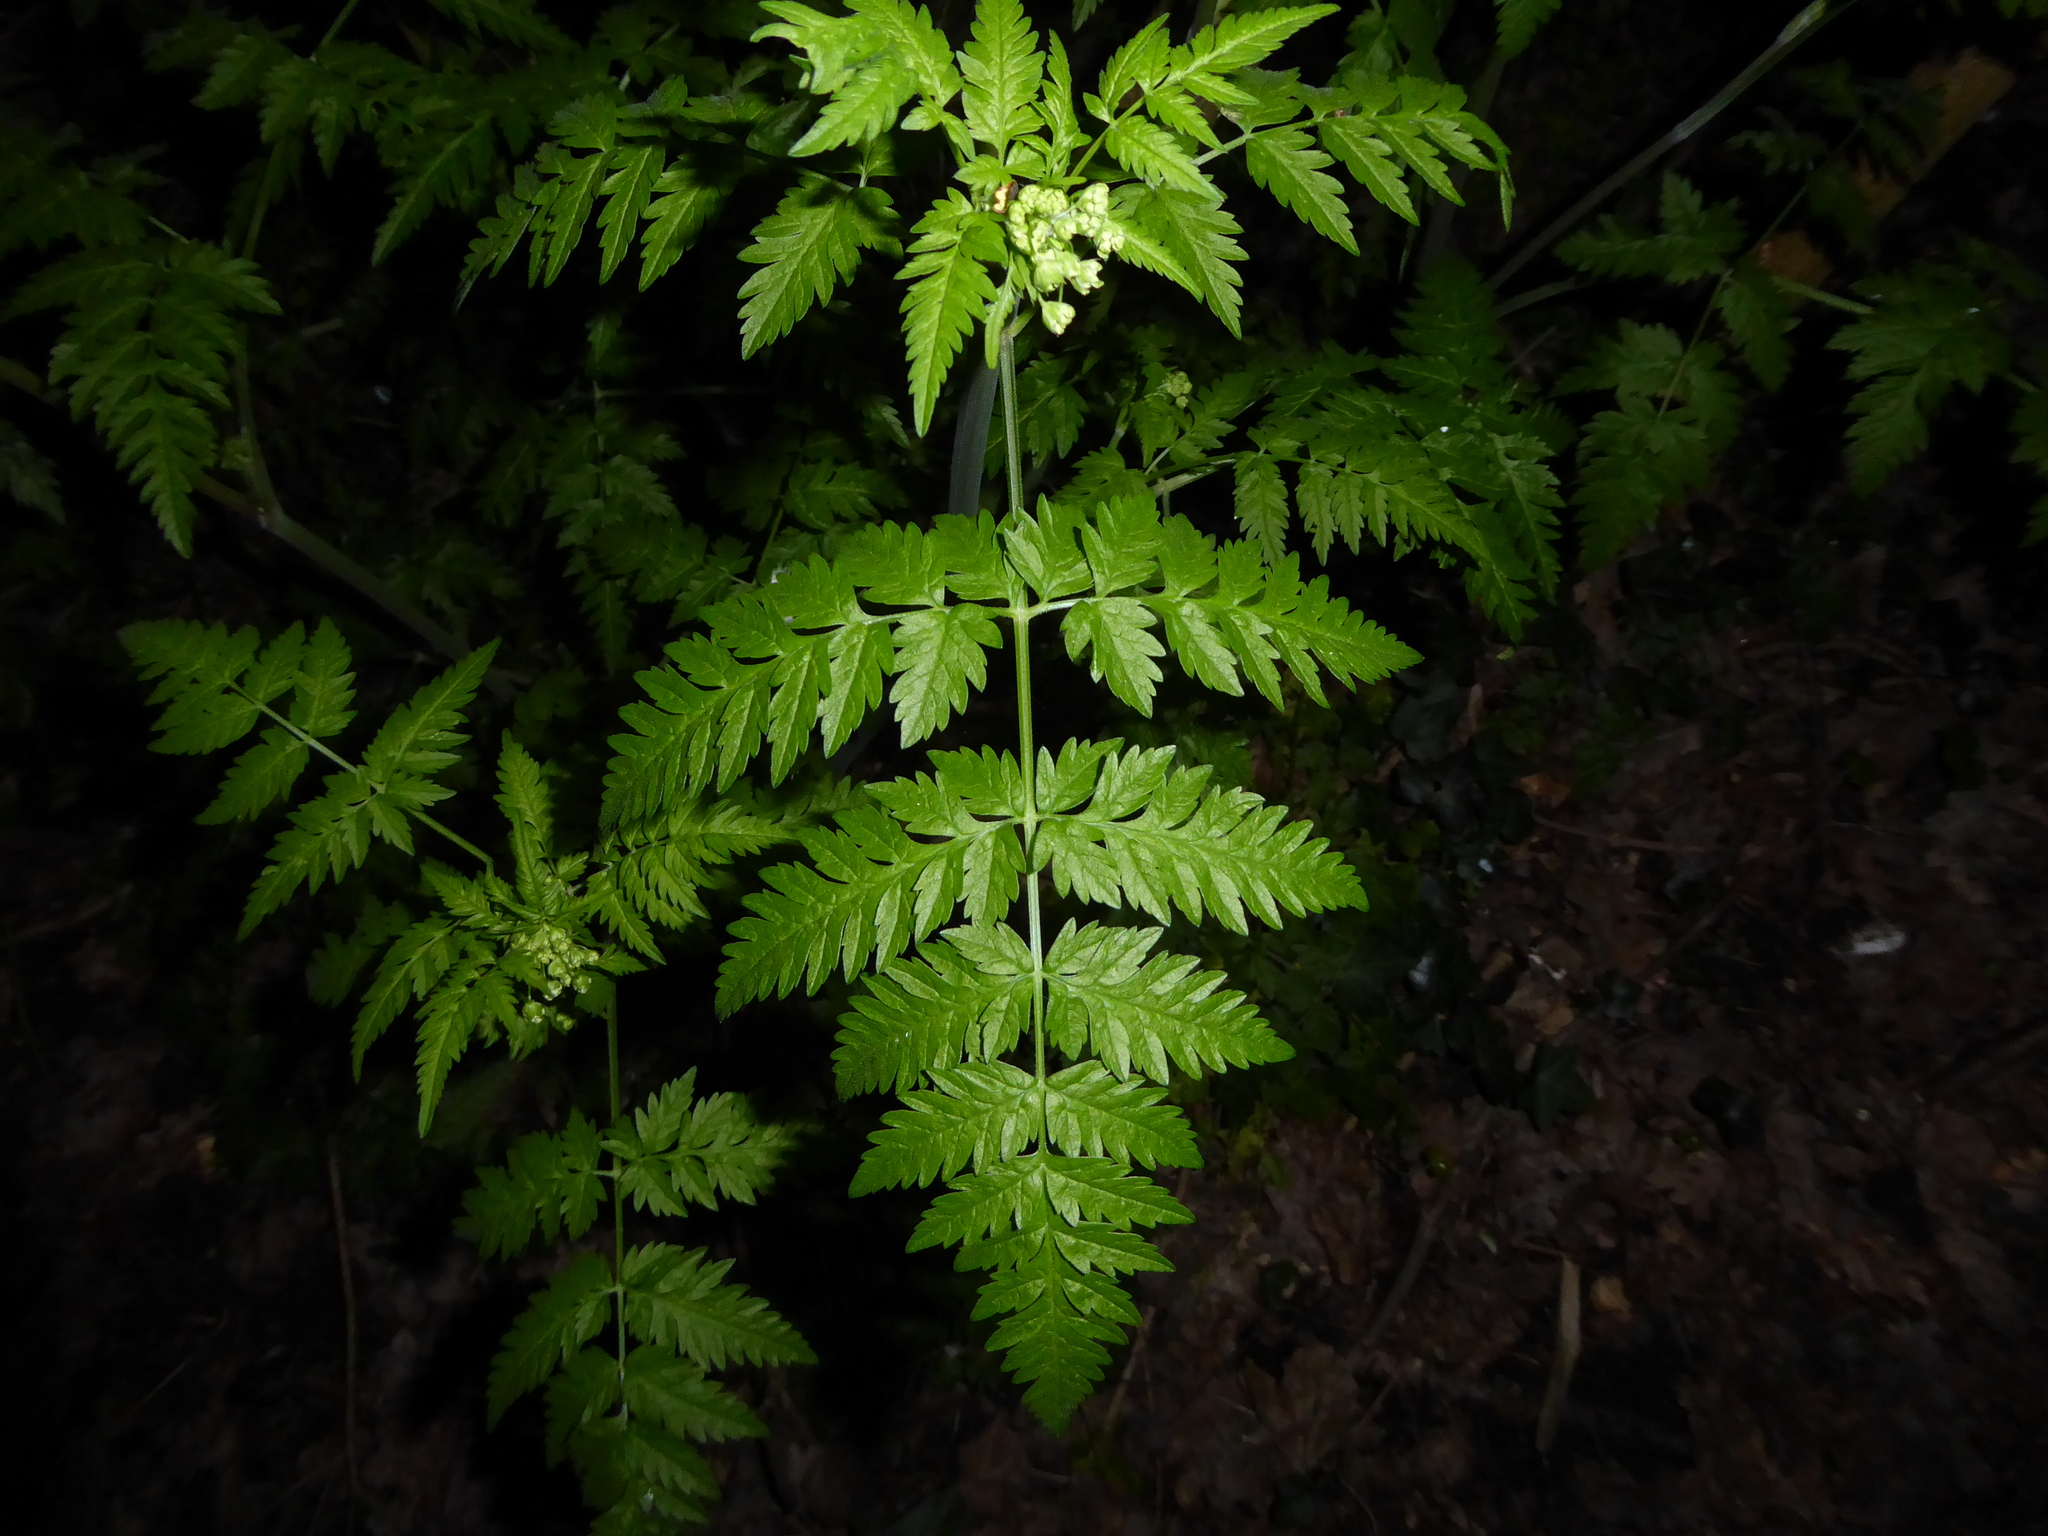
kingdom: Plantae
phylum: Tracheophyta
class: Magnoliopsida
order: Apiales
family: Apiaceae
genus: Anthriscus
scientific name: Anthriscus sylvestris
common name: Cow parsley
